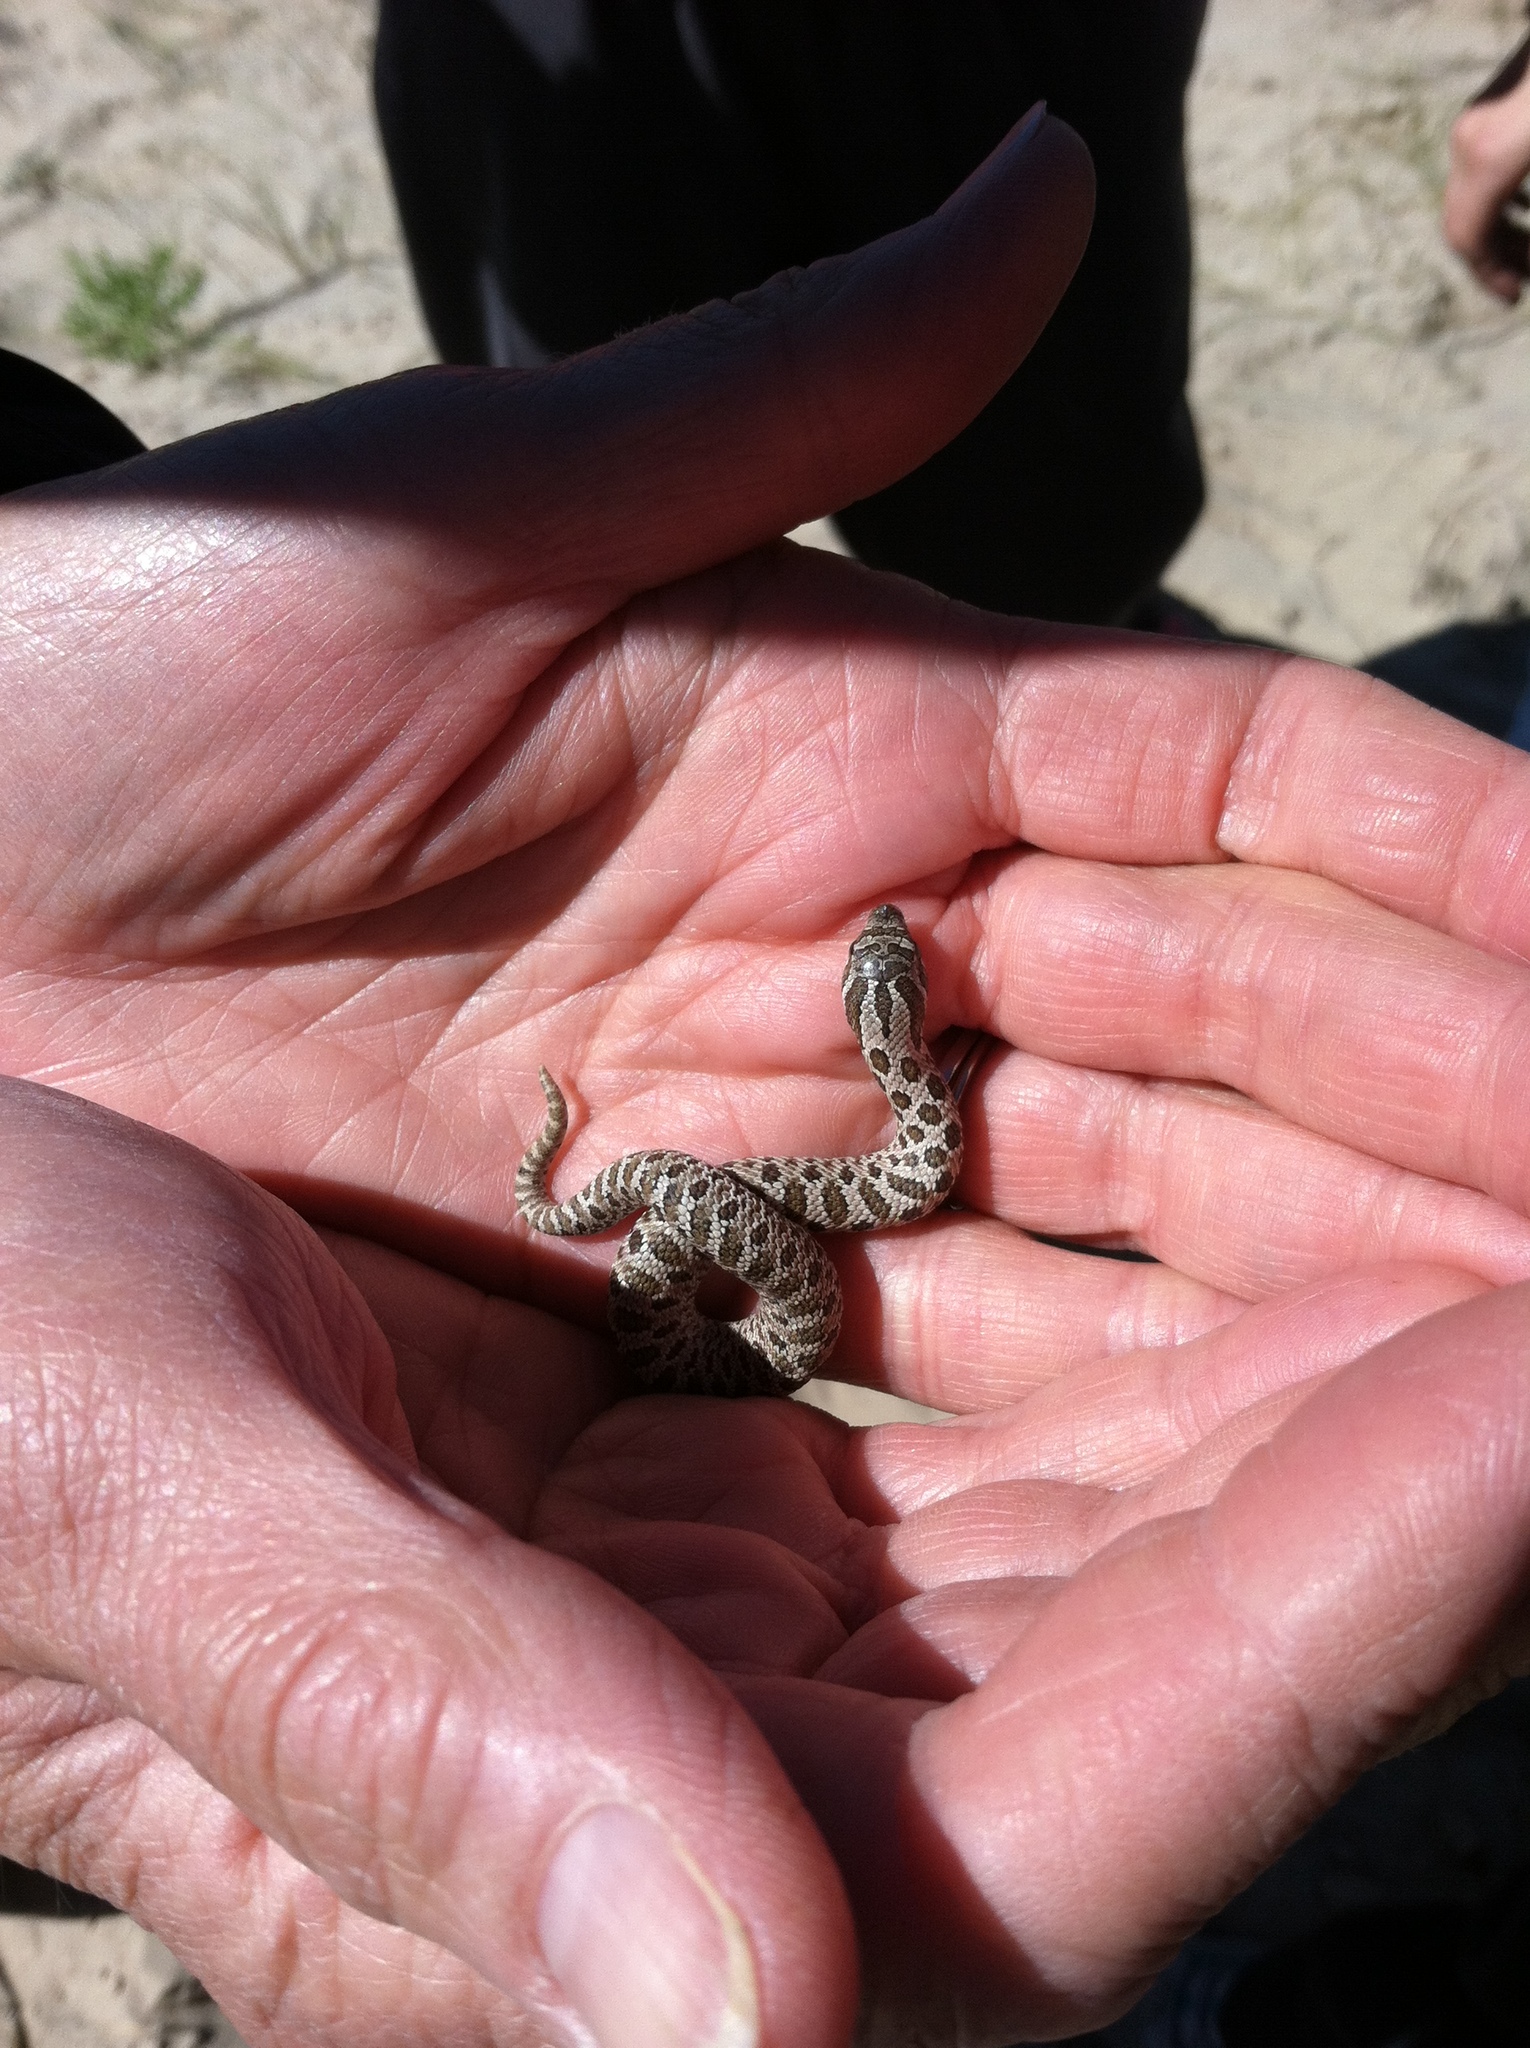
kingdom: Animalia
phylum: Chordata
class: Squamata
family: Colubridae
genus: Heterodon
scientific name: Heterodon nasicus
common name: Western hognose snake
